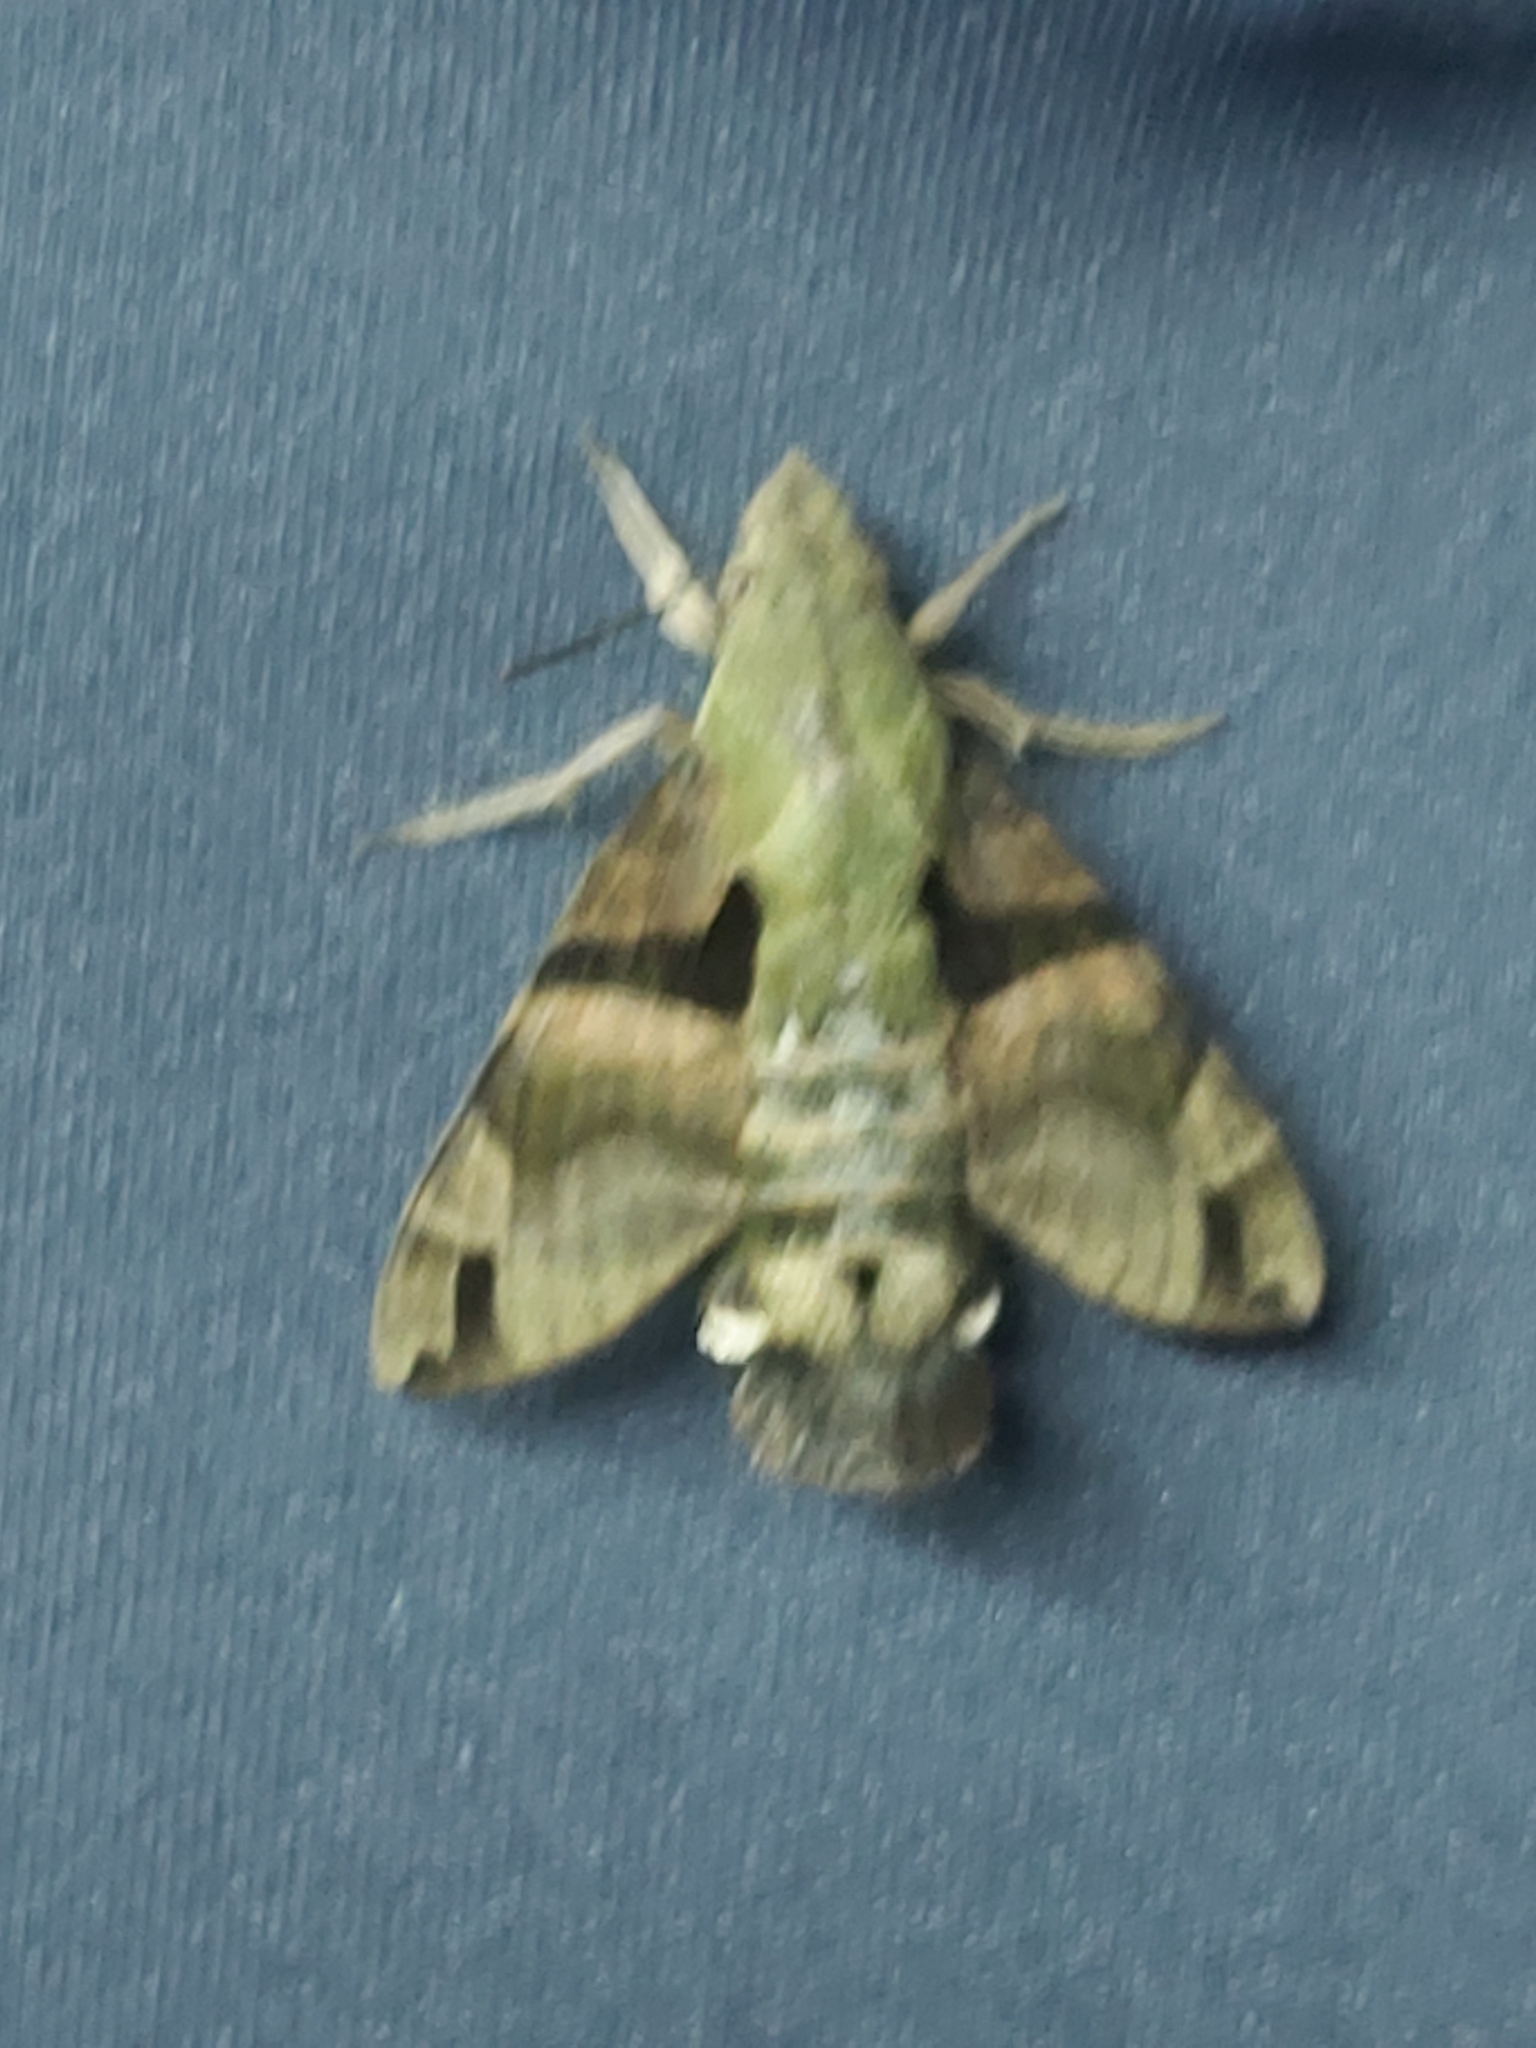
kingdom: Animalia
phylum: Arthropoda
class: Insecta
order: Lepidoptera
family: Sphingidae
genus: Macroglossum
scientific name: Macroglossum sitiene
